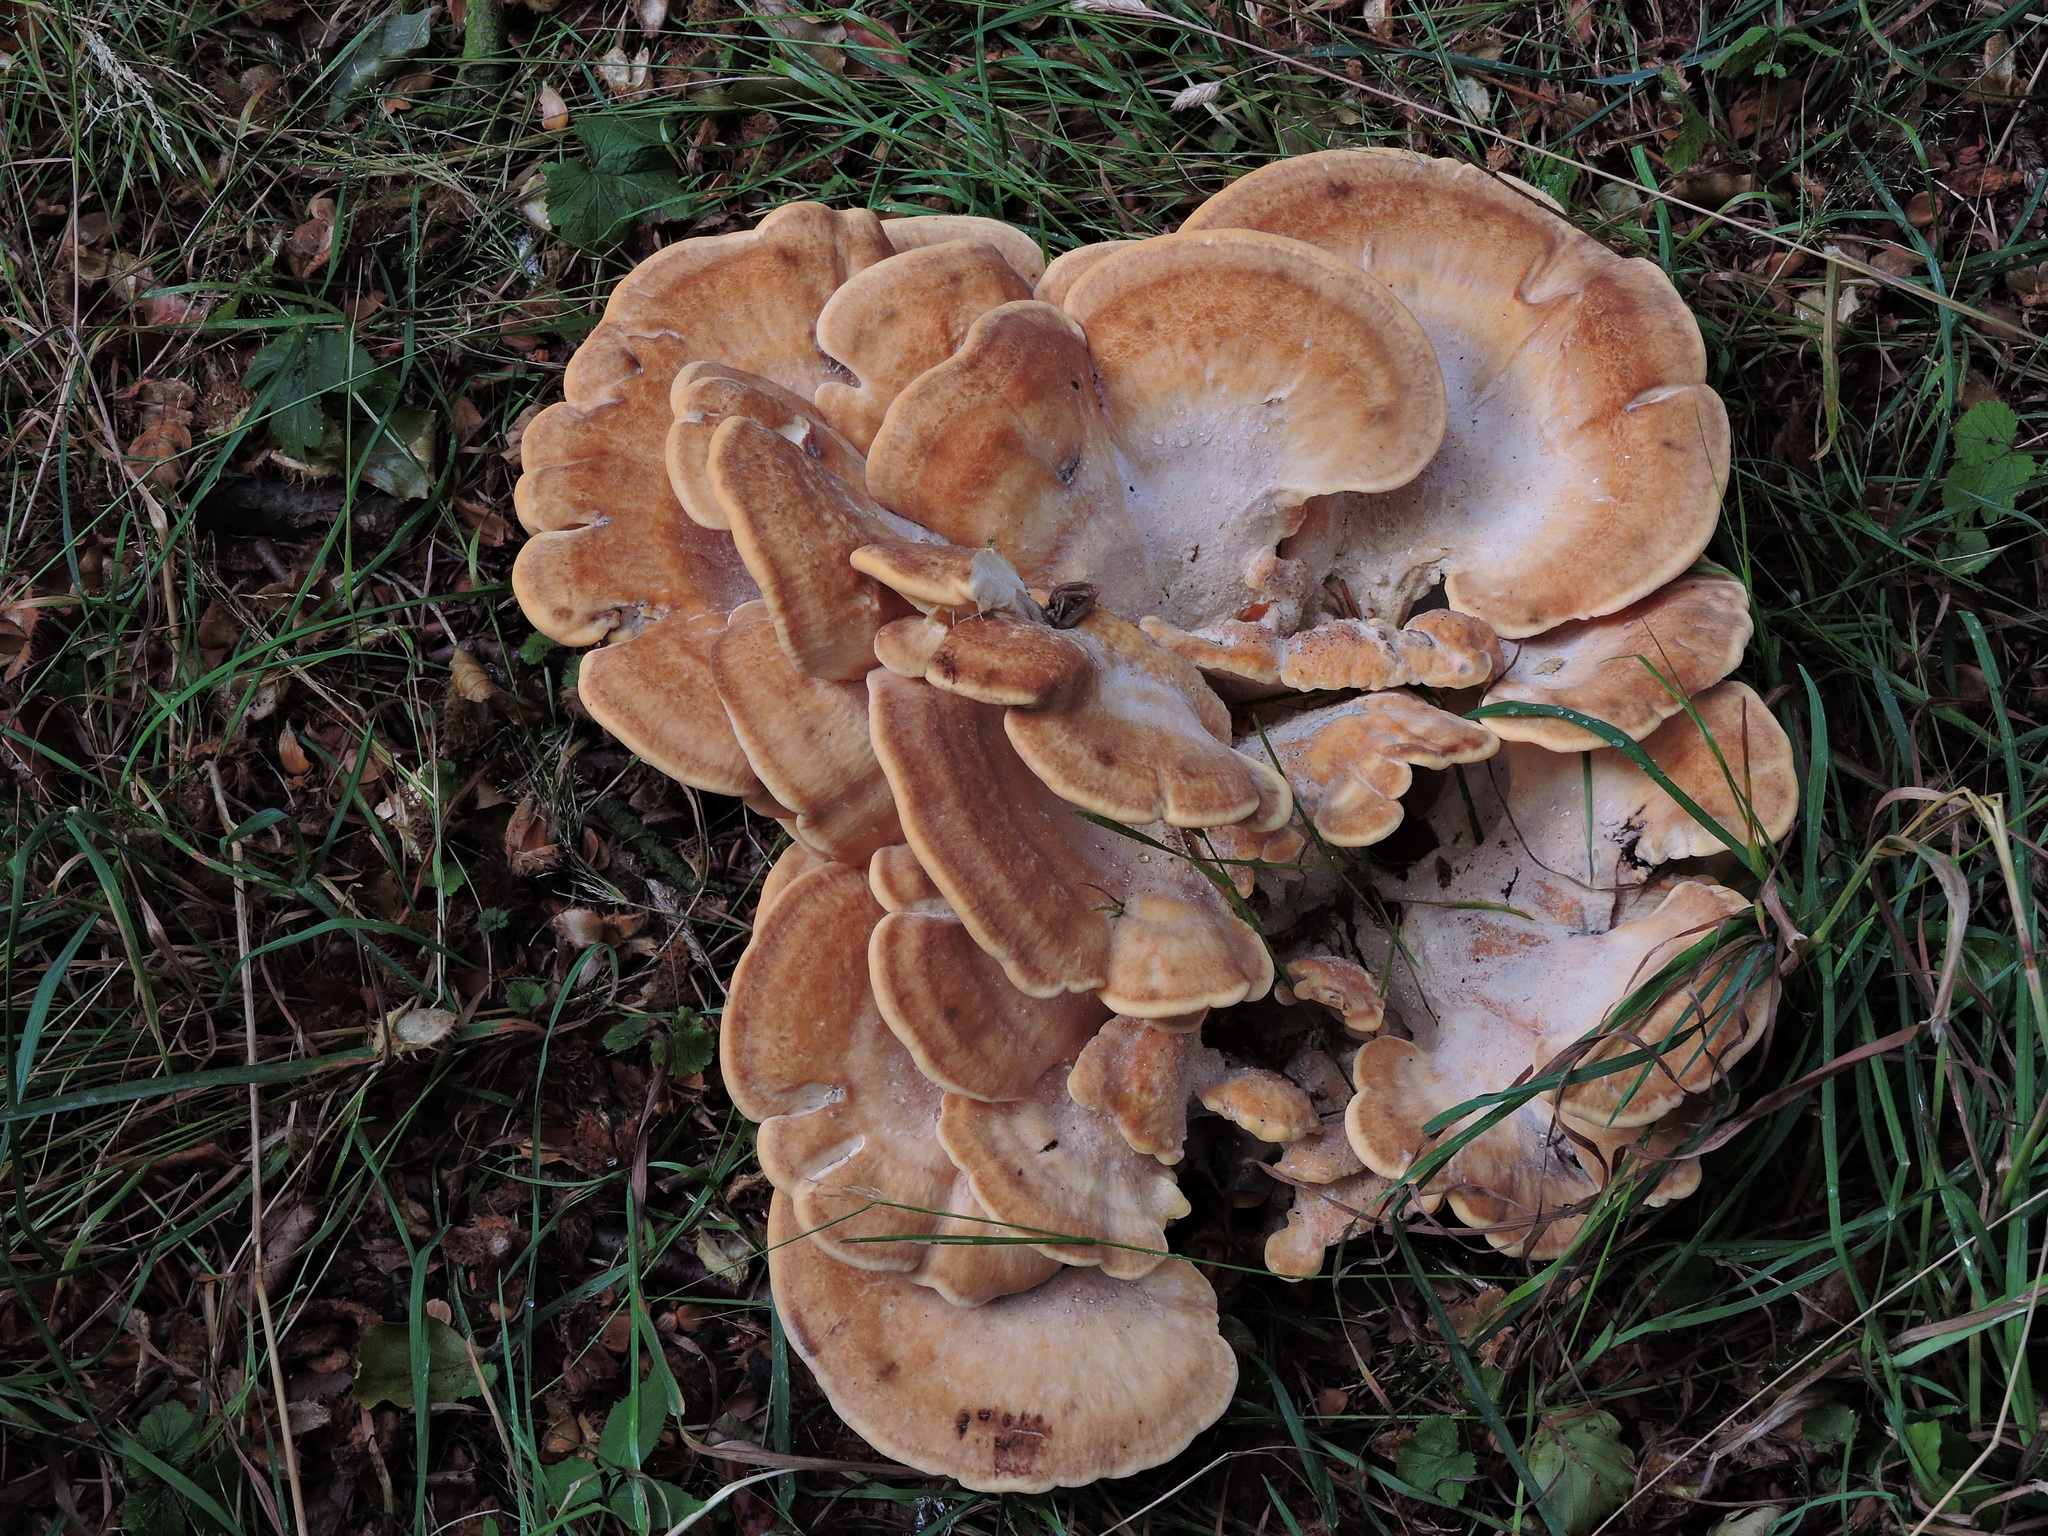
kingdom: Fungi
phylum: Basidiomycota
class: Agaricomycetes
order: Polyporales
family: Meripilaceae
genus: Meripilus
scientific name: Meripilus giganteus
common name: Giant polypore
